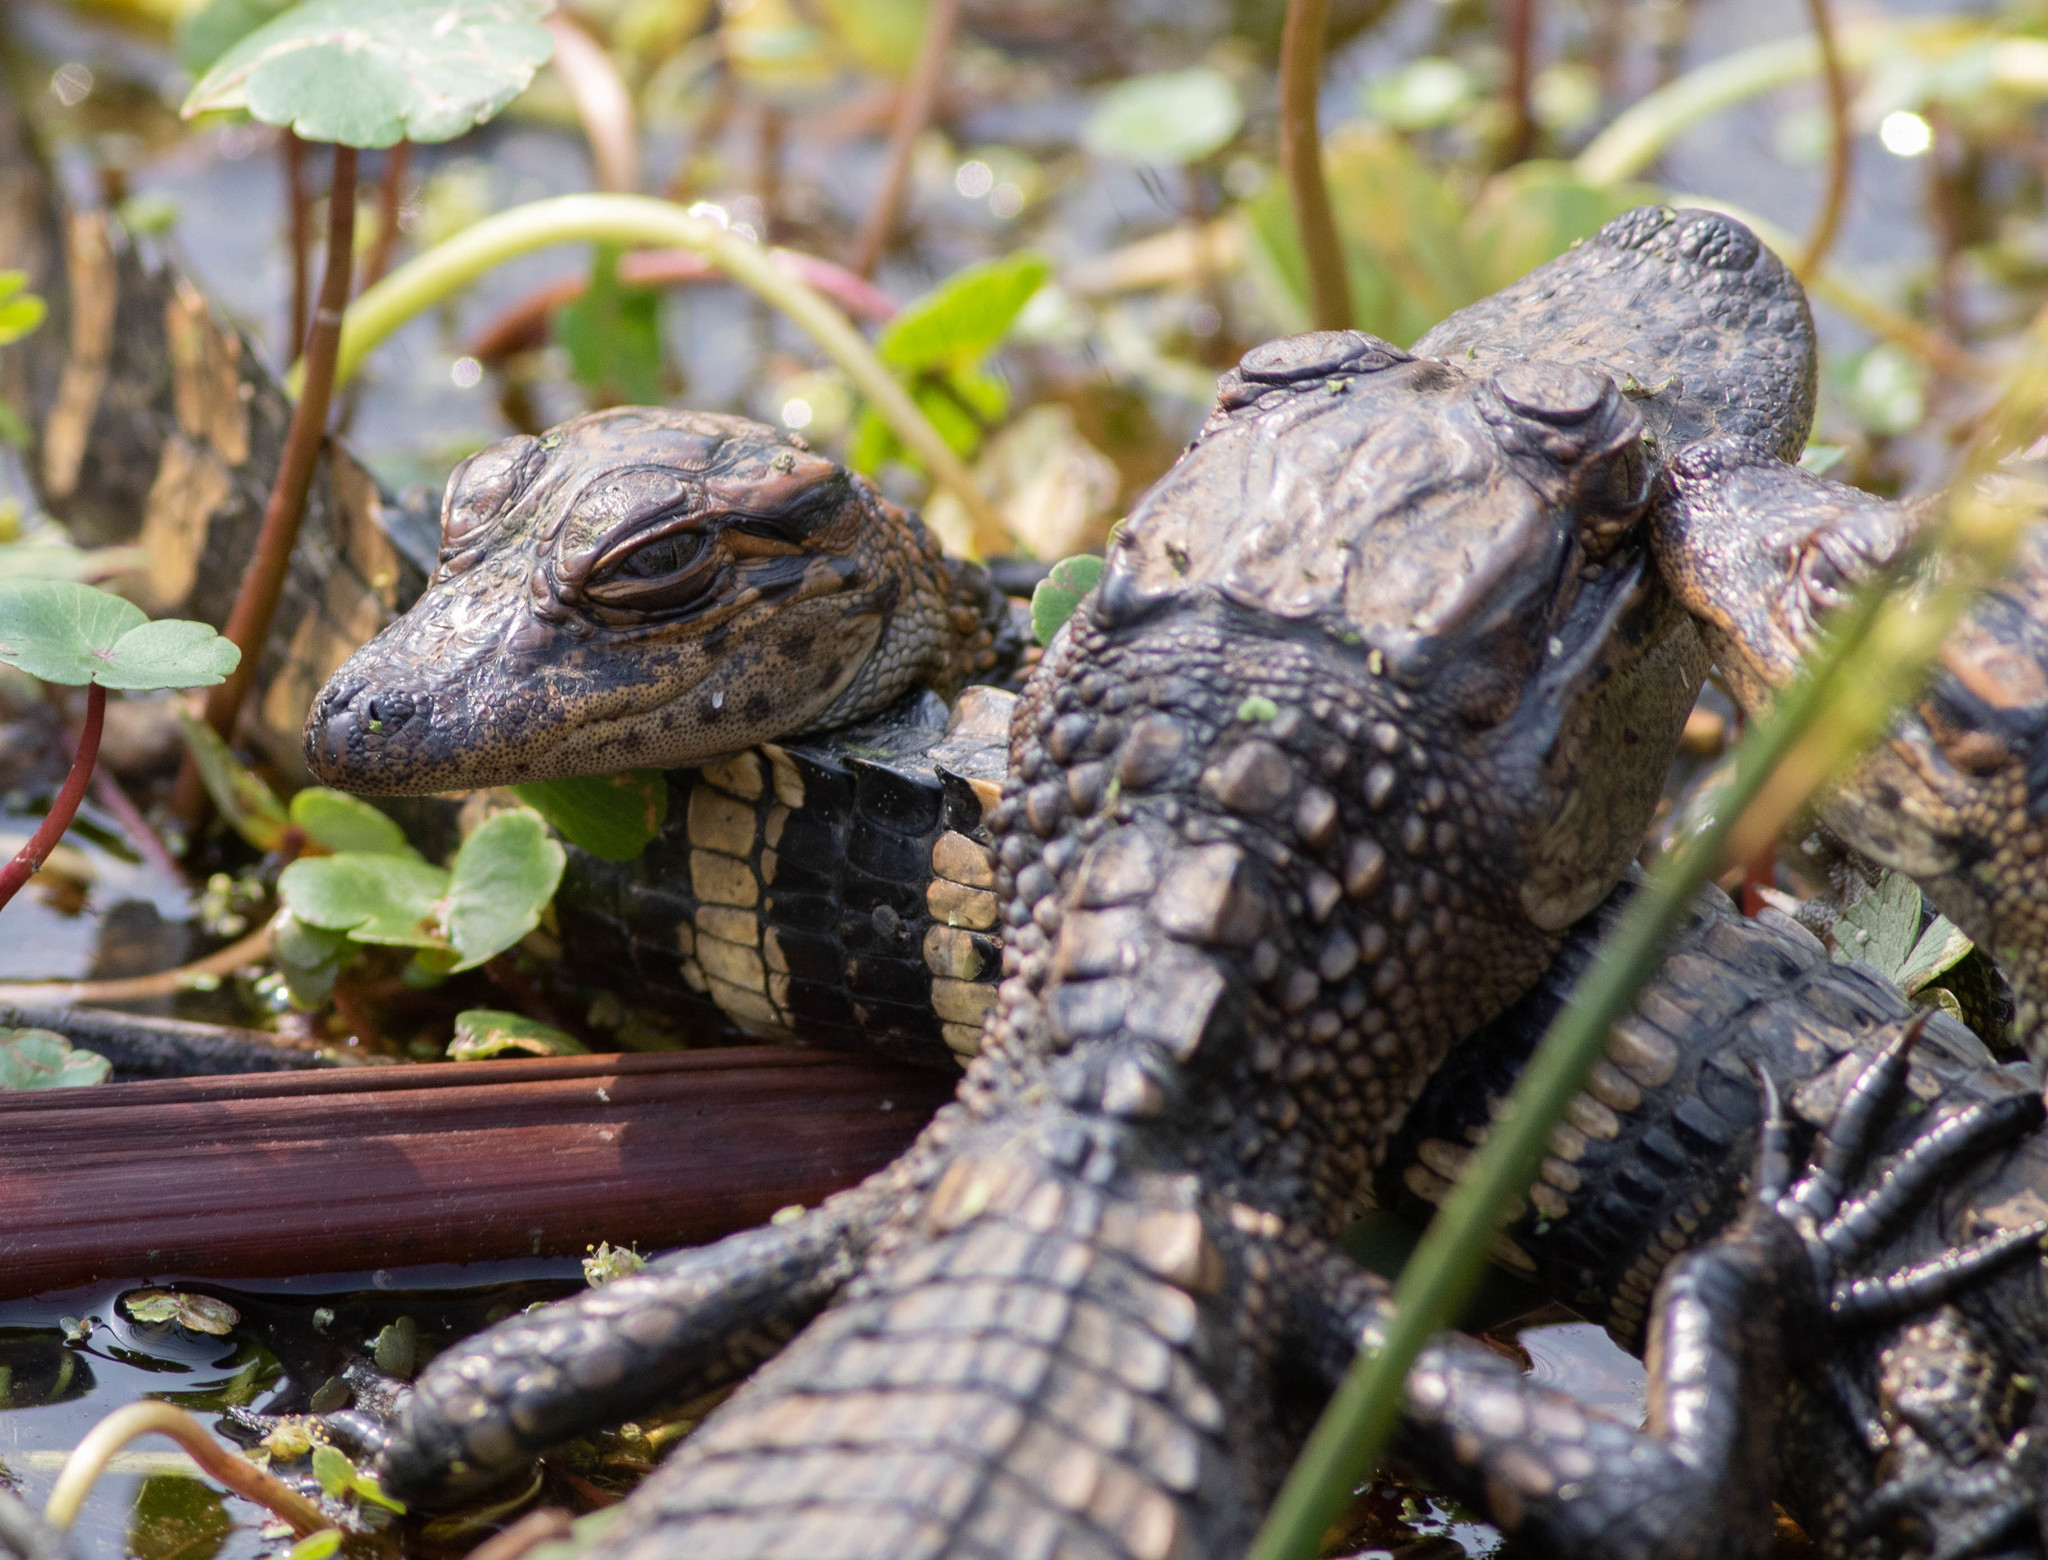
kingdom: Animalia
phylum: Chordata
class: Crocodylia
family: Alligatoridae
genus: Alligator
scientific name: Alligator mississippiensis
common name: American alligator
